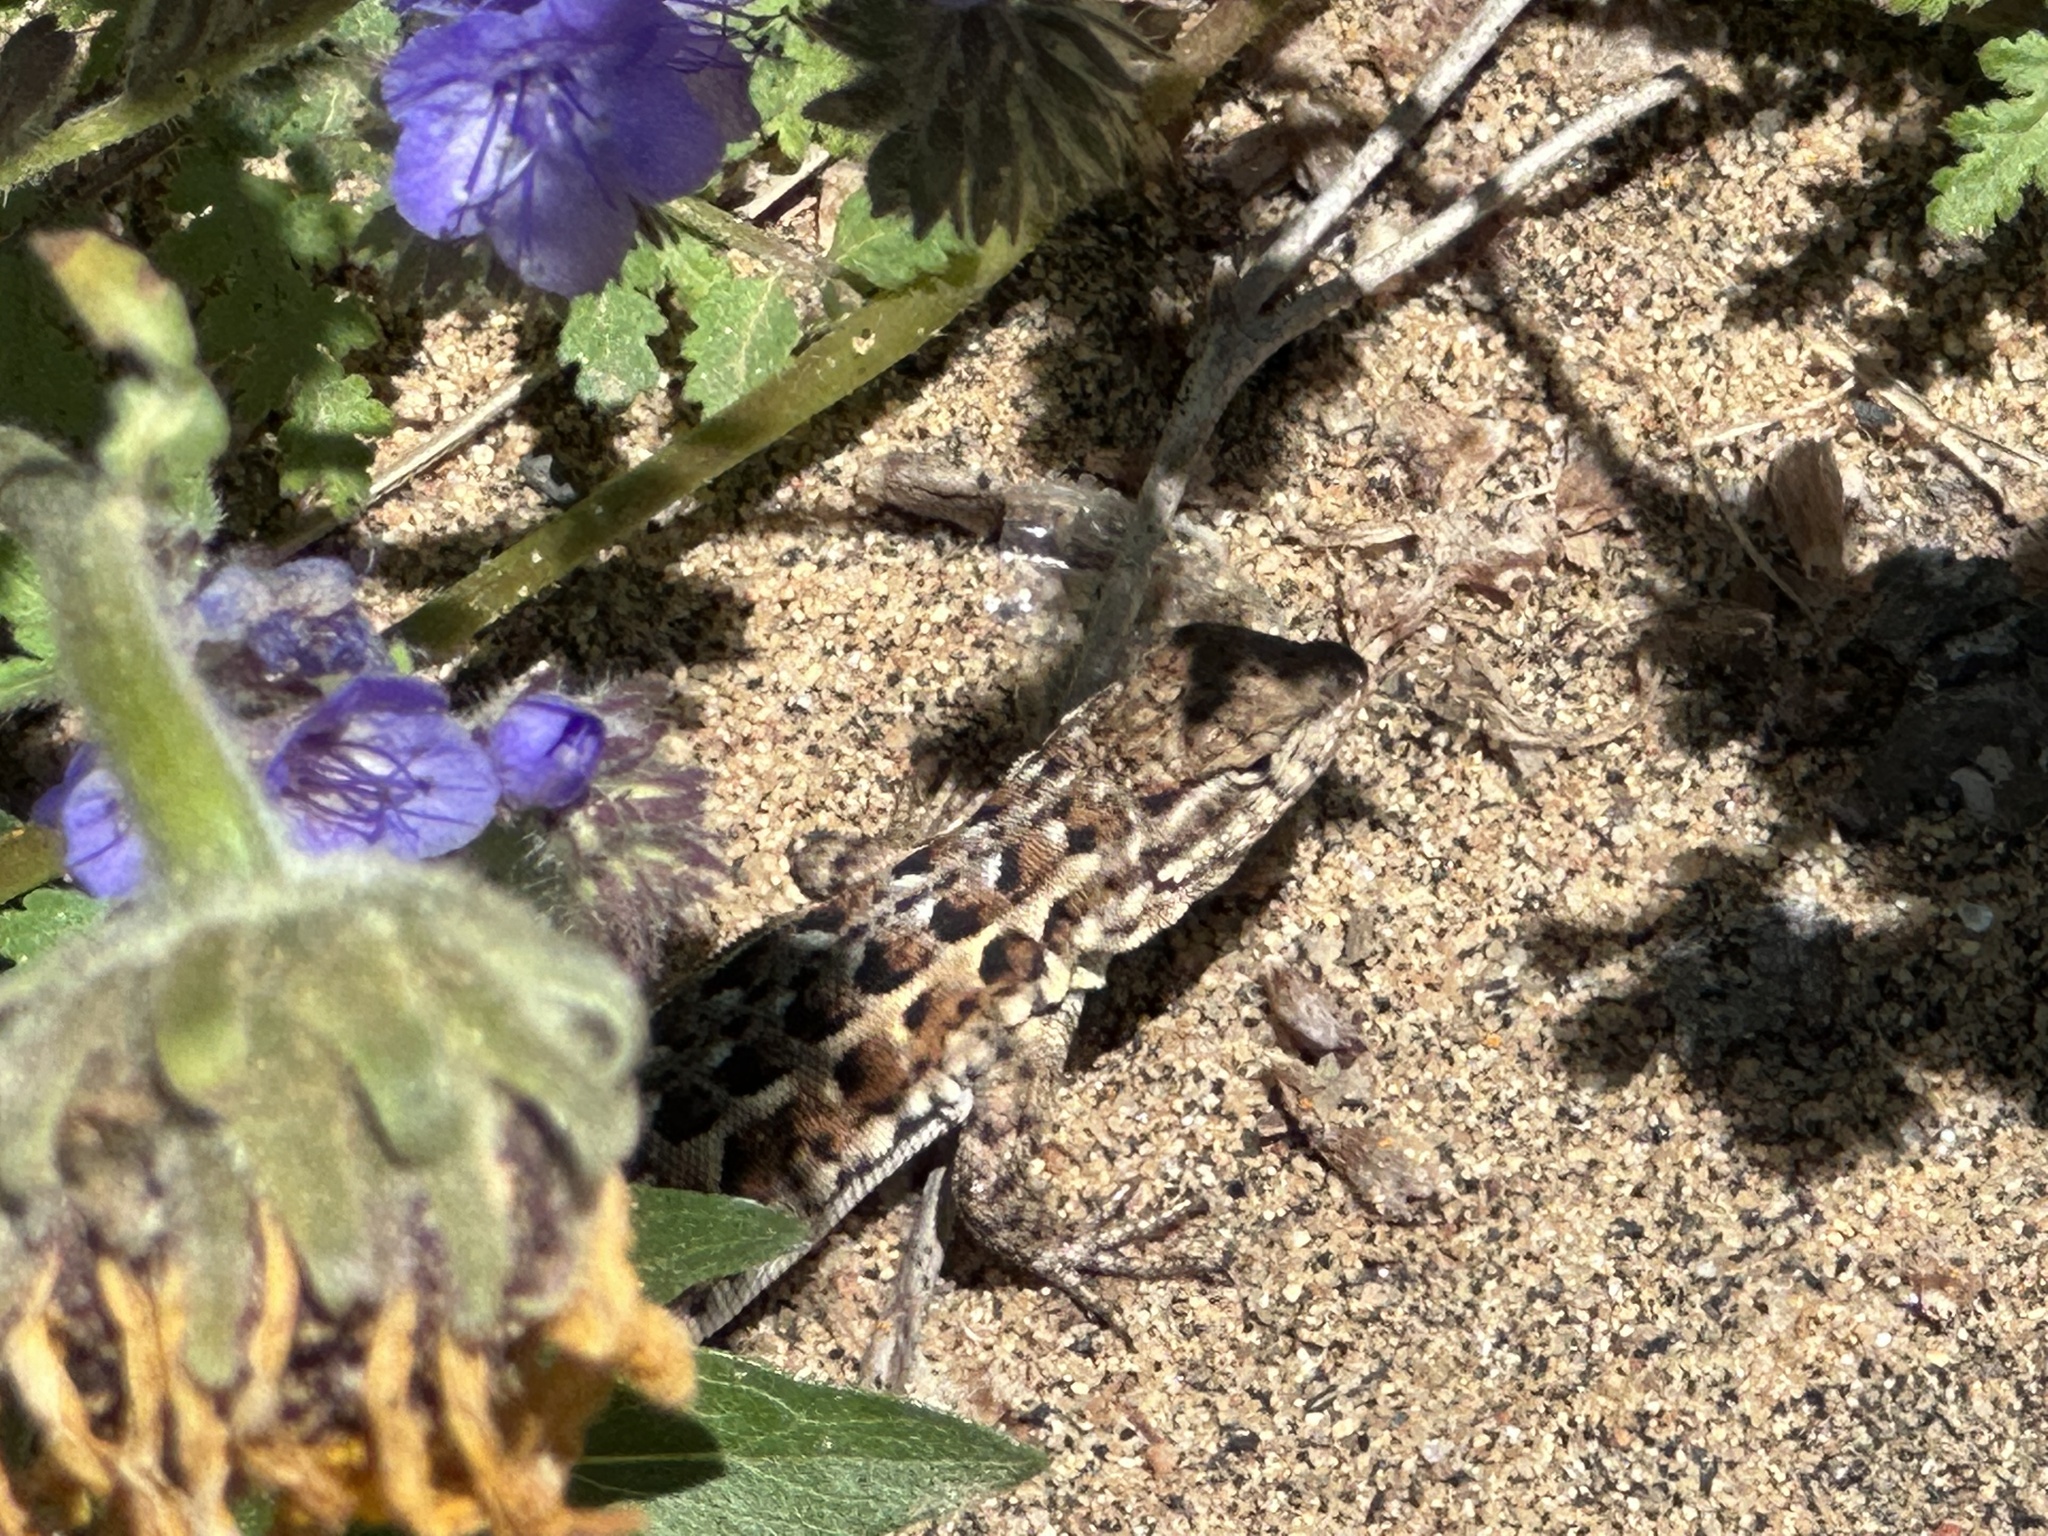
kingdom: Animalia
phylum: Chordata
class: Squamata
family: Phrynosomatidae
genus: Uta
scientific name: Uta stansburiana
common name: Side-blotched lizard
